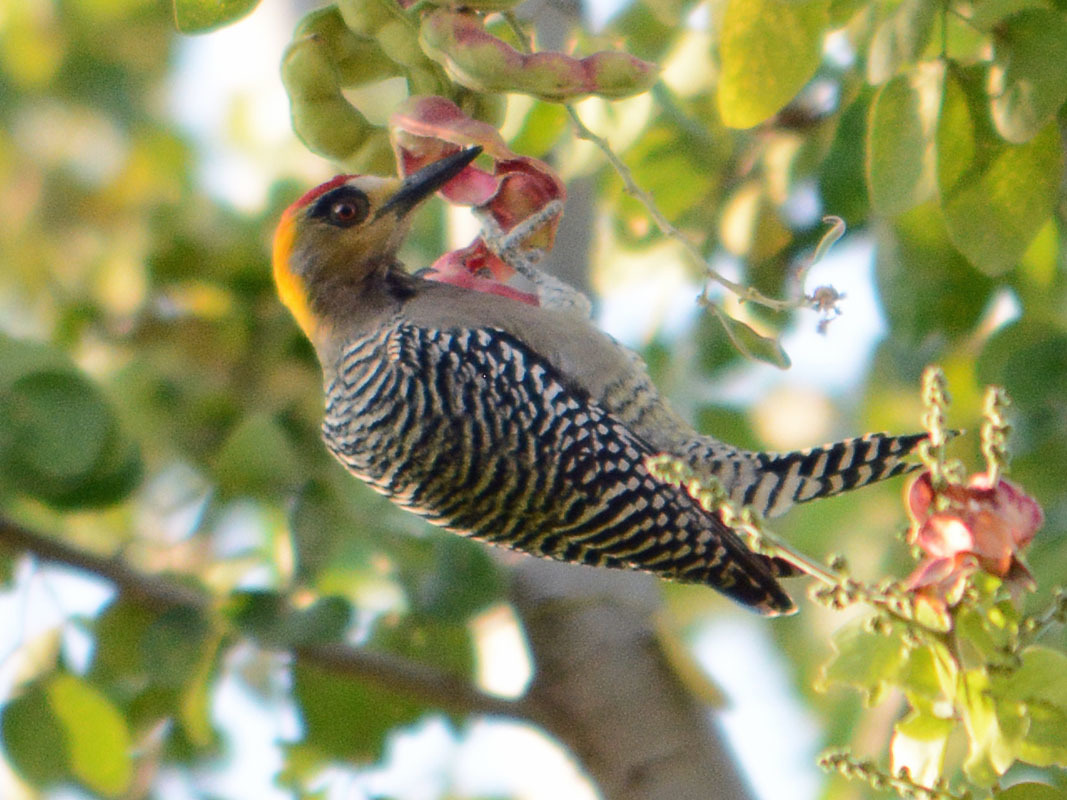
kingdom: Animalia
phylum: Chordata
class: Aves
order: Piciformes
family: Picidae
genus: Melanerpes
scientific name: Melanerpes chrysogenys
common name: Golden-cheeked woodpecker
